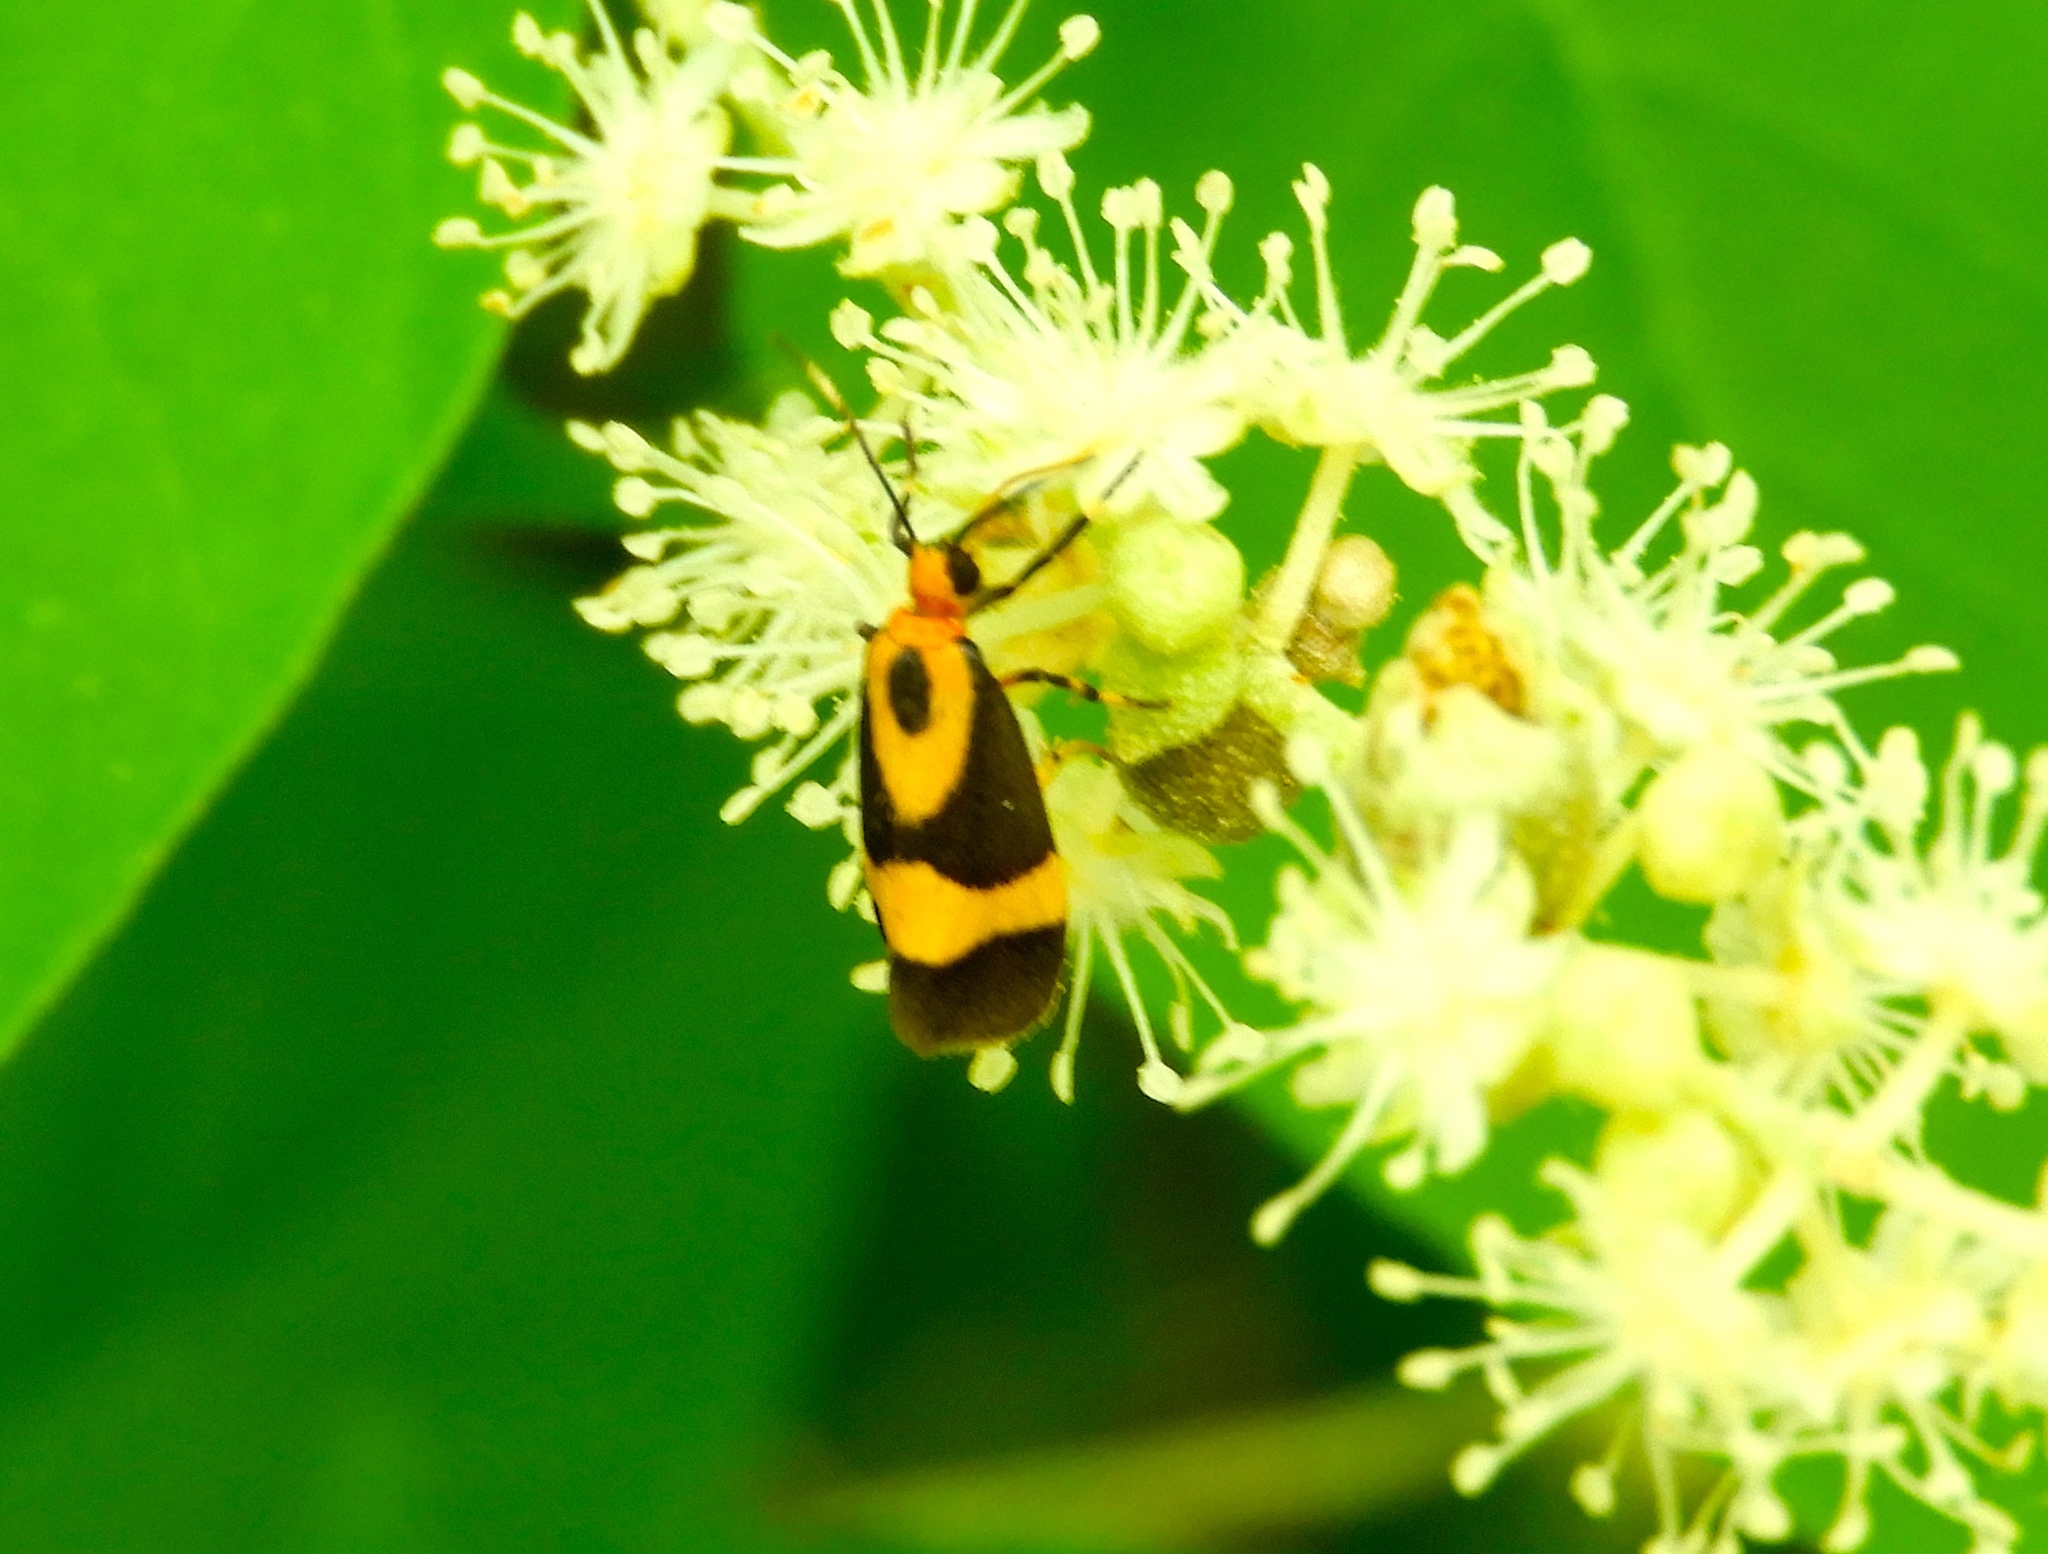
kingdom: Animalia
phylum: Arthropoda
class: Insecta
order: Lepidoptera
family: Erebidae
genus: Cisthene
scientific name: Cisthene
